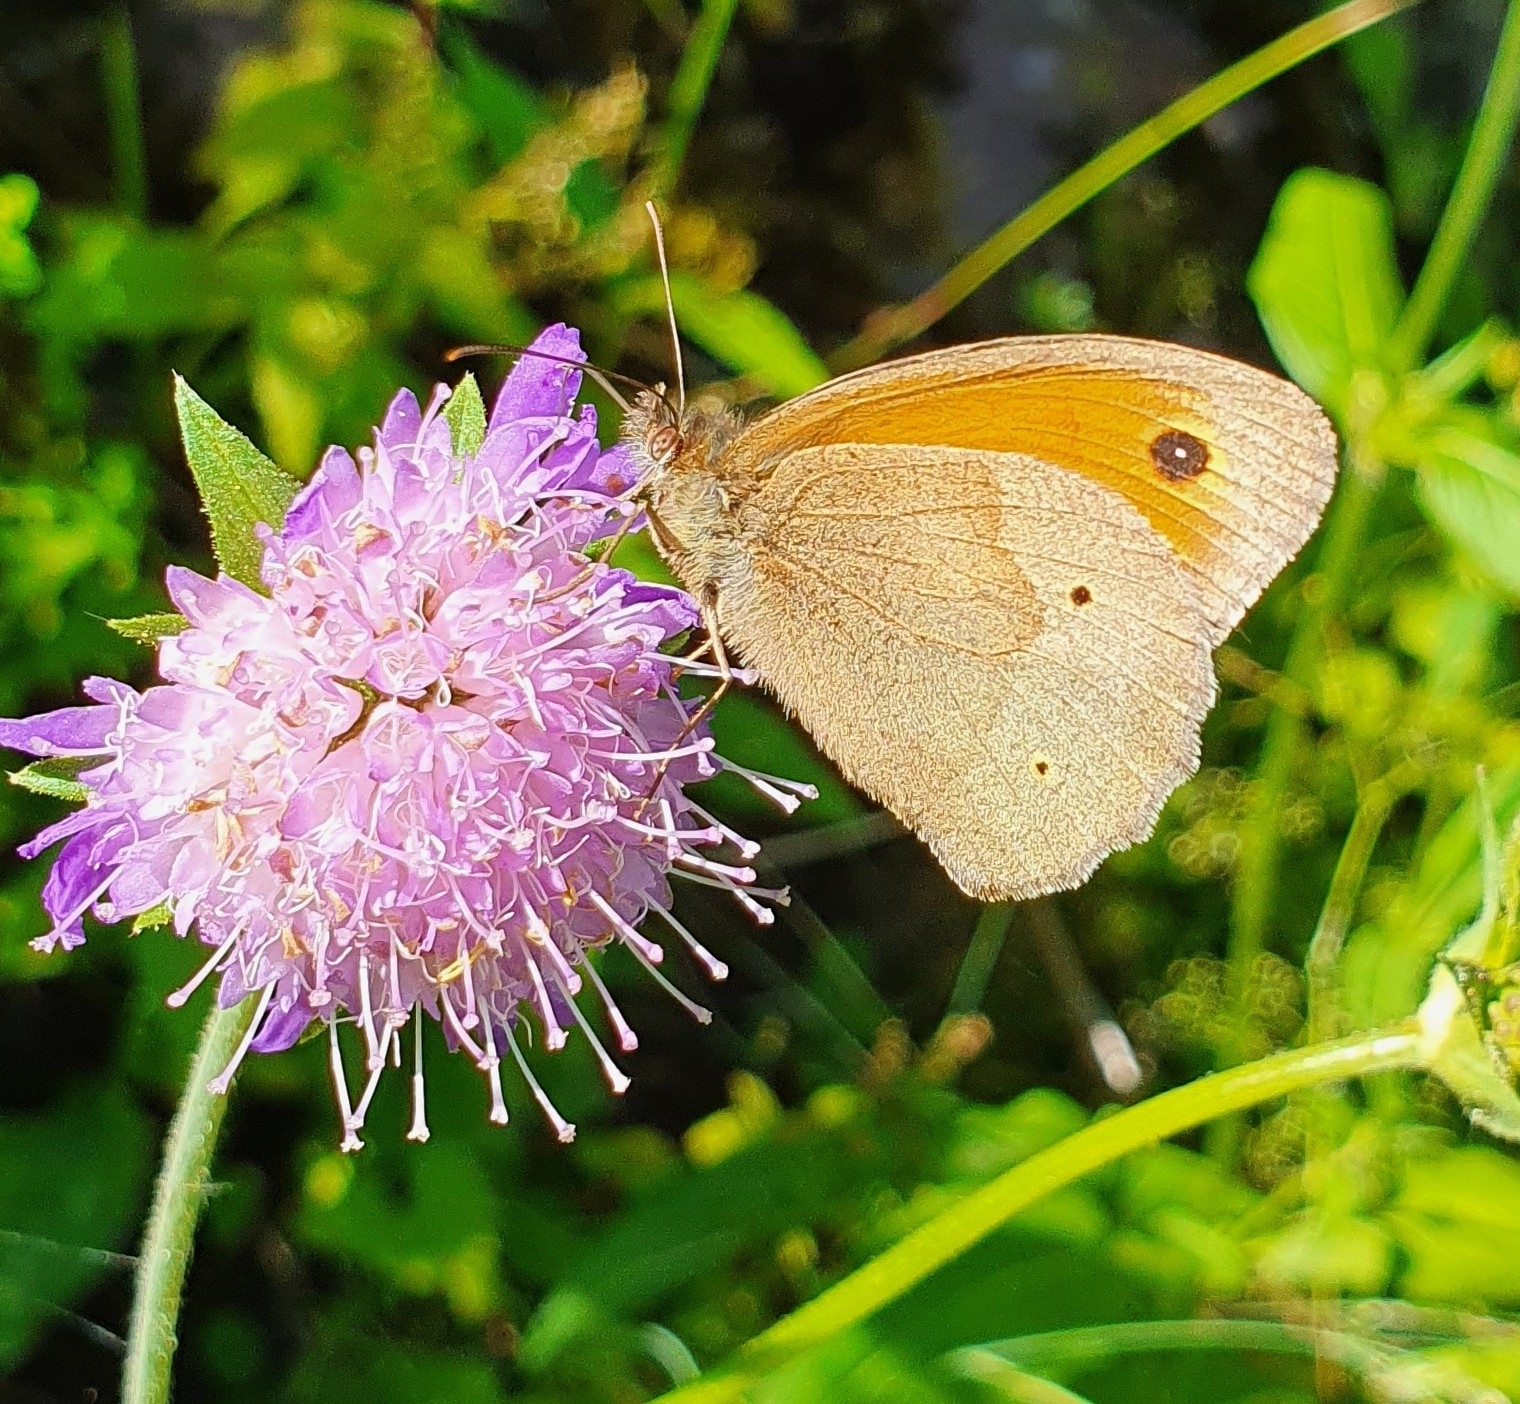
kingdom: Animalia
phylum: Arthropoda
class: Insecta
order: Lepidoptera
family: Nymphalidae
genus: Maniola
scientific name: Maniola jurtina
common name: Meadow brown
